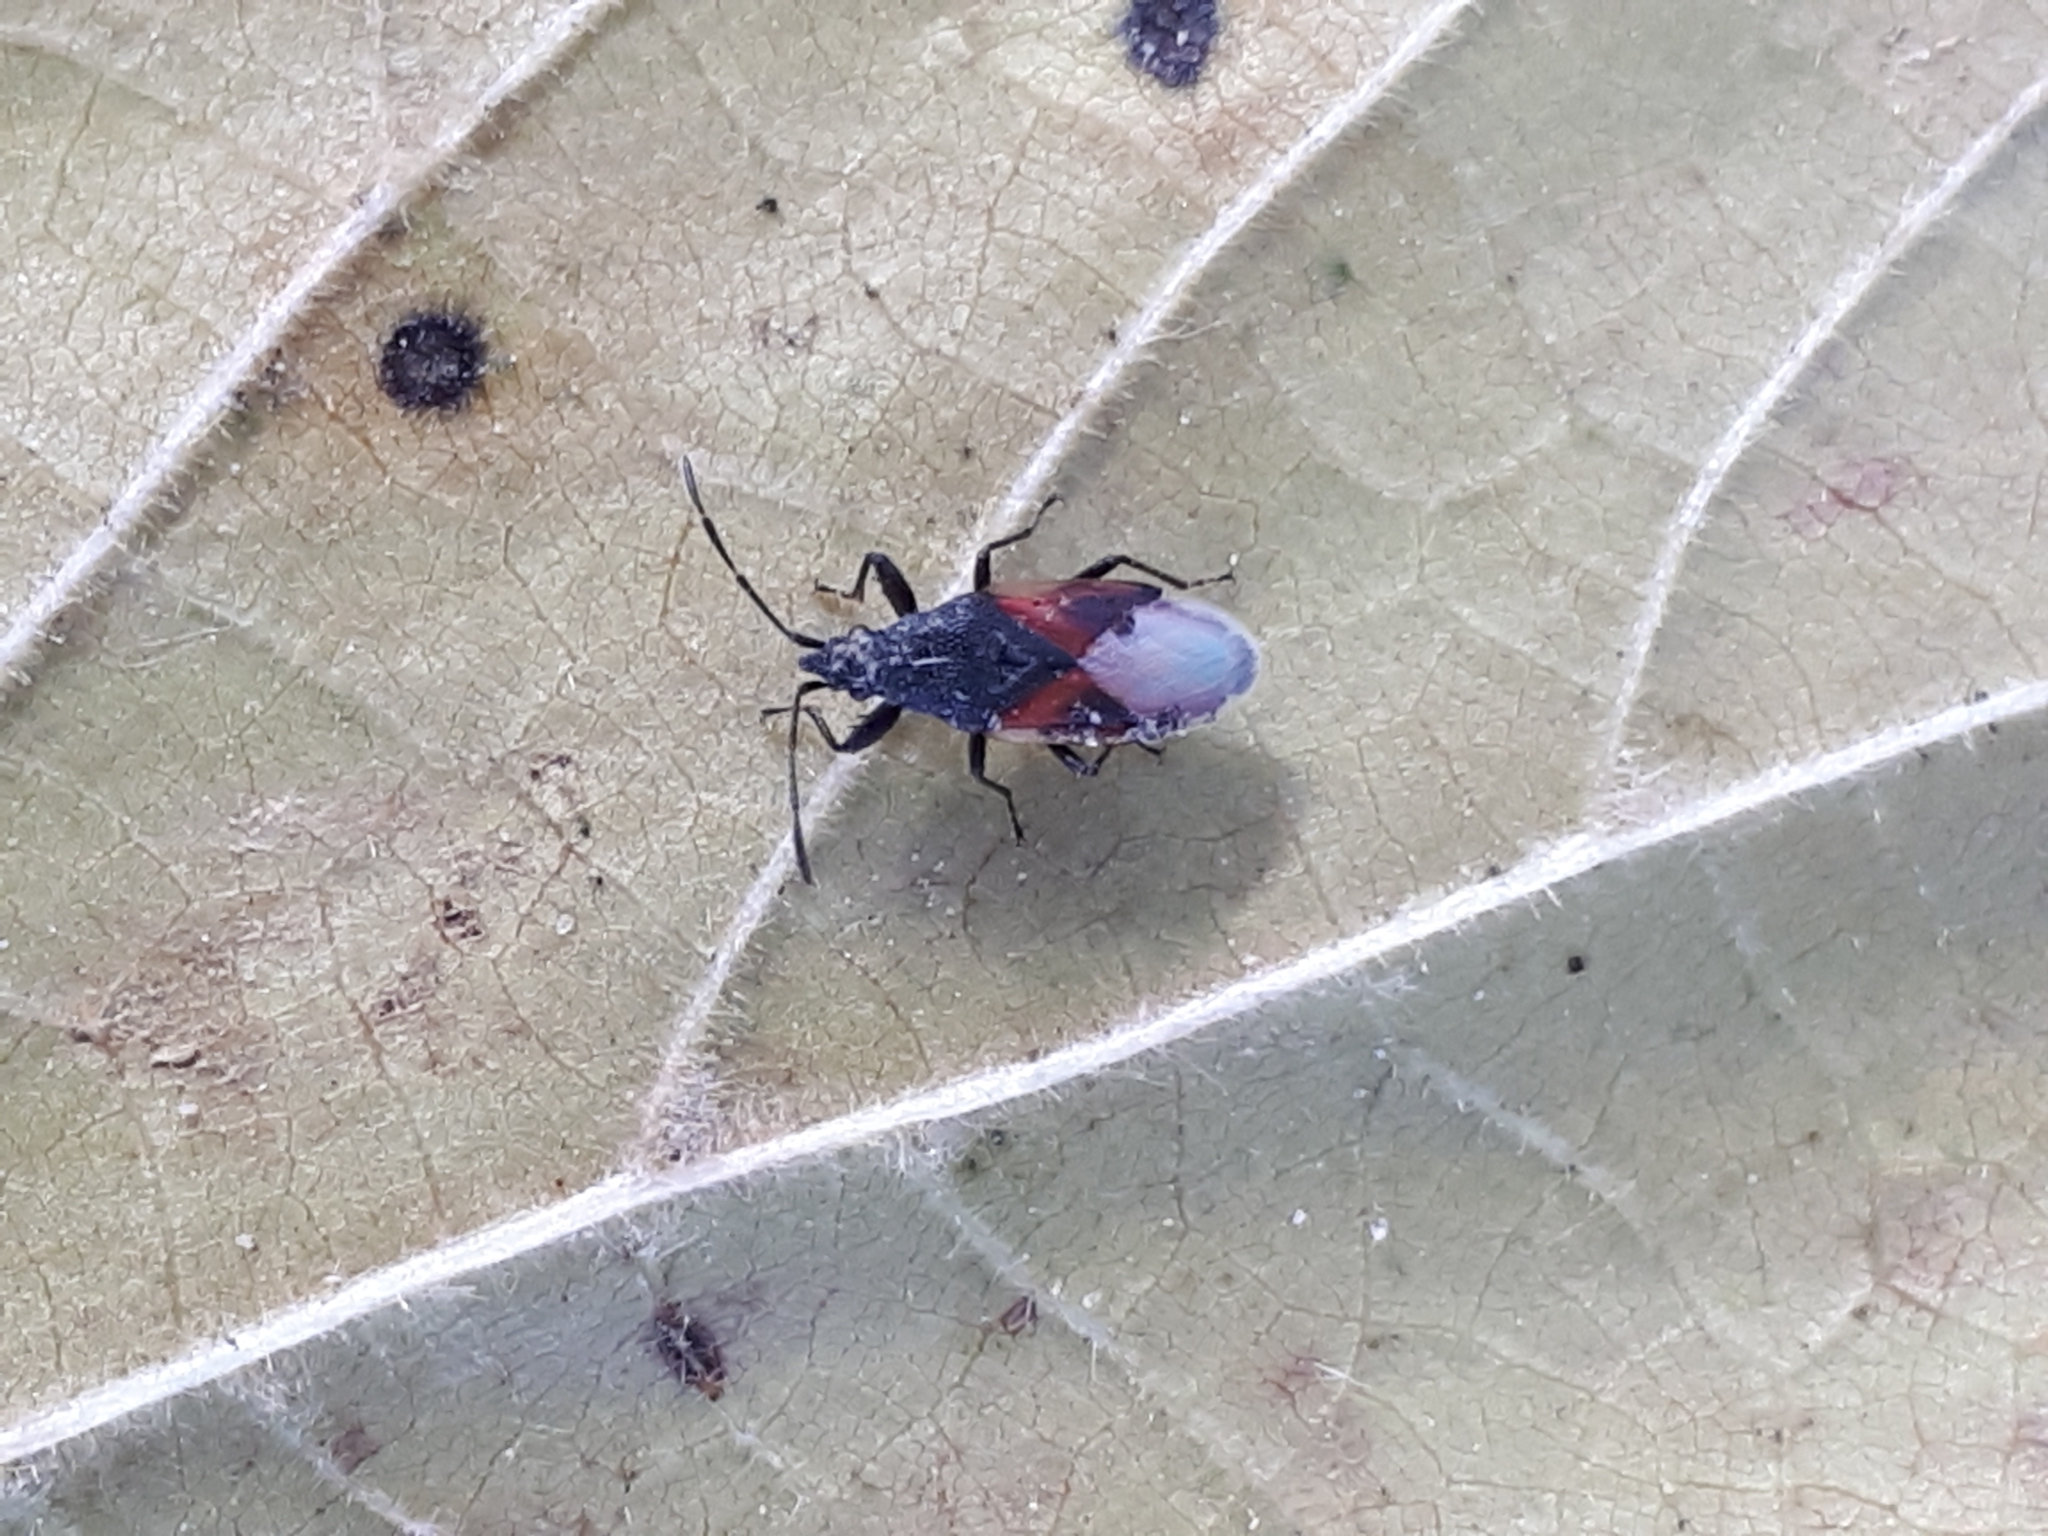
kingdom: Animalia
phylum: Arthropoda
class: Insecta
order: Hemiptera
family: Oxycarenidae
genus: Oxycarenus
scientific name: Oxycarenus lavaterae
